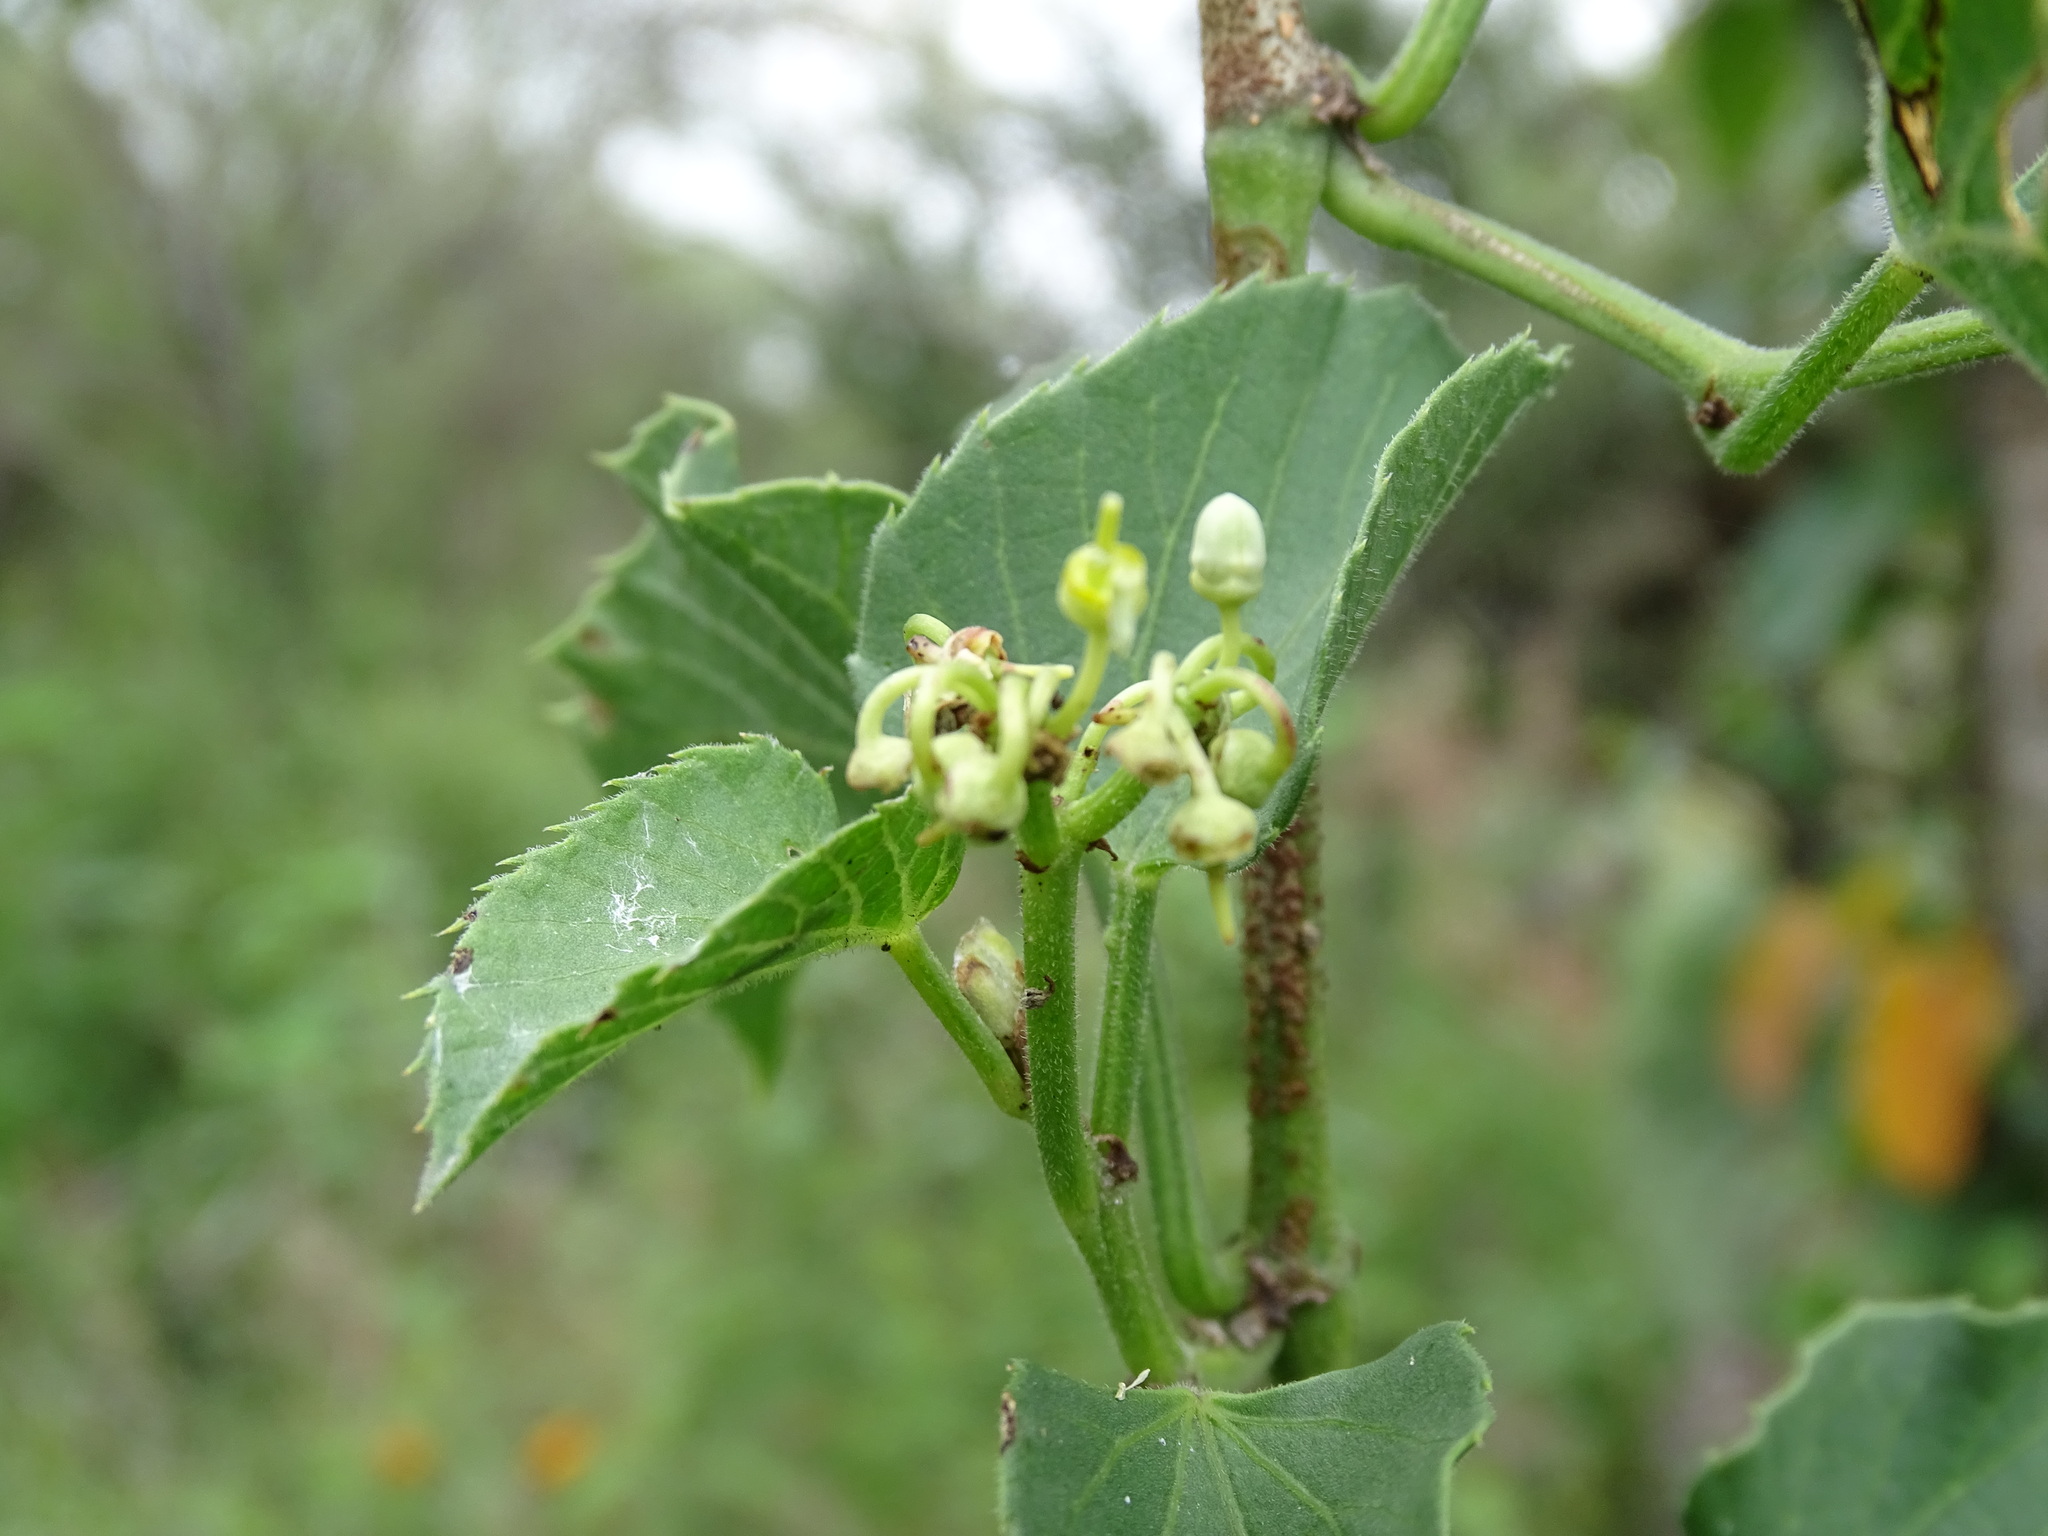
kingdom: Plantae
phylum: Tracheophyta
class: Magnoliopsida
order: Vitales
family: Vitaceae
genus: Cissus
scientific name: Cissus verticillata
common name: Princess vine
